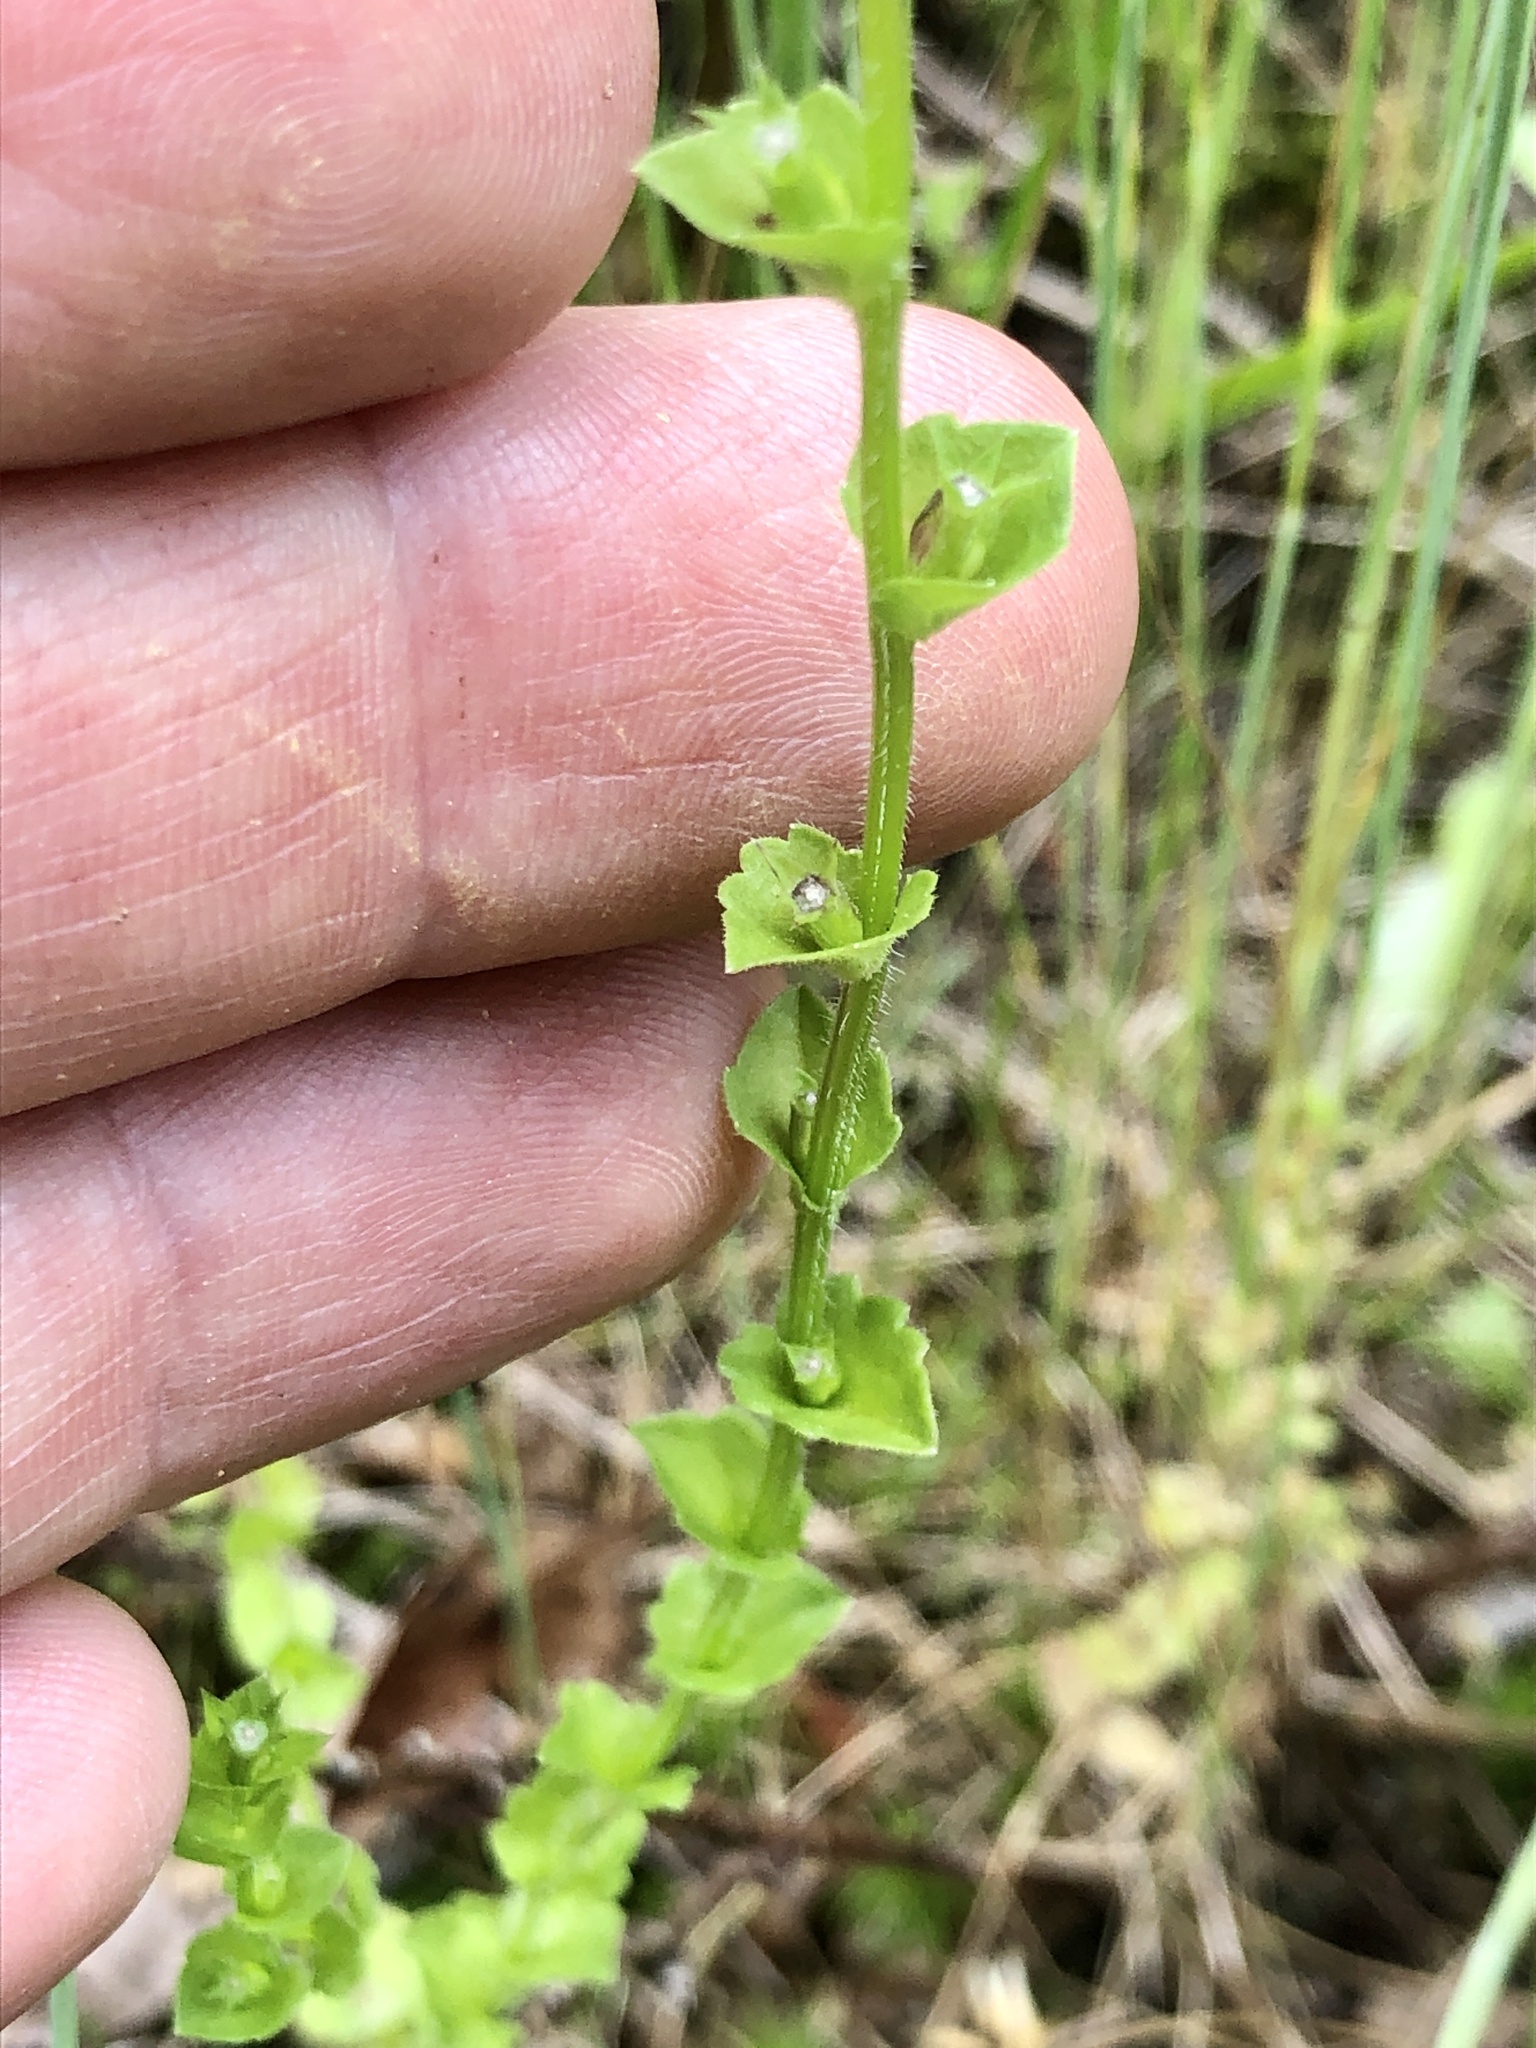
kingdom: Plantae
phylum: Tracheophyta
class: Magnoliopsida
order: Asterales
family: Campanulaceae
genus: Triodanis
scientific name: Triodanis perfoliata
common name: Clasping venus' looking-glass
